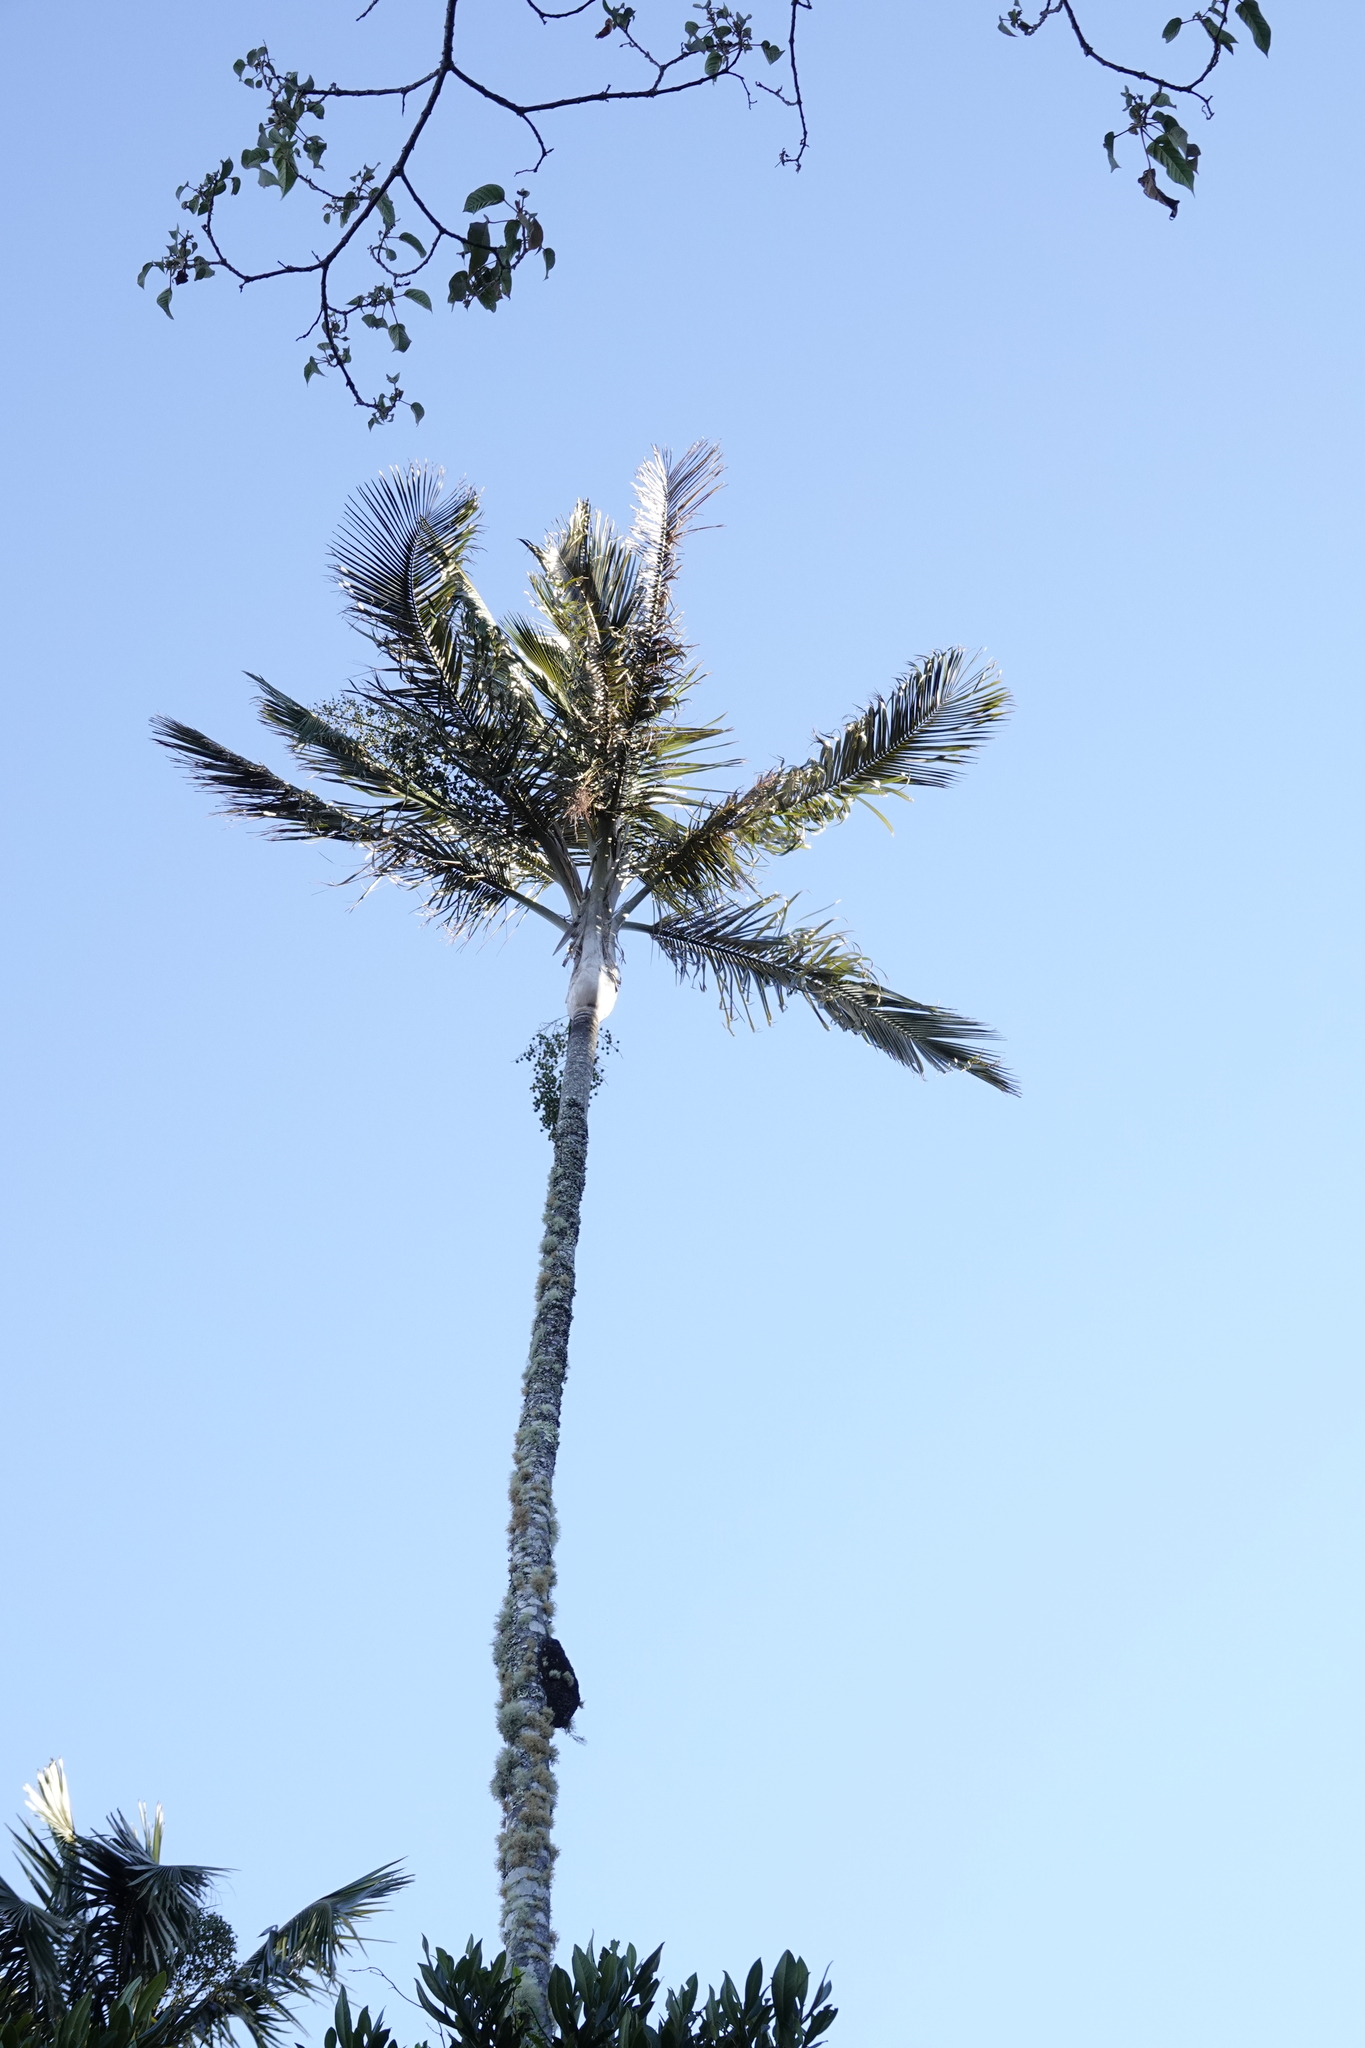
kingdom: Plantae
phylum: Tracheophyta
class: Liliopsida
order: Arecales
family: Arecaceae
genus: Ceroxylon
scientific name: Ceroxylon ceriferum
